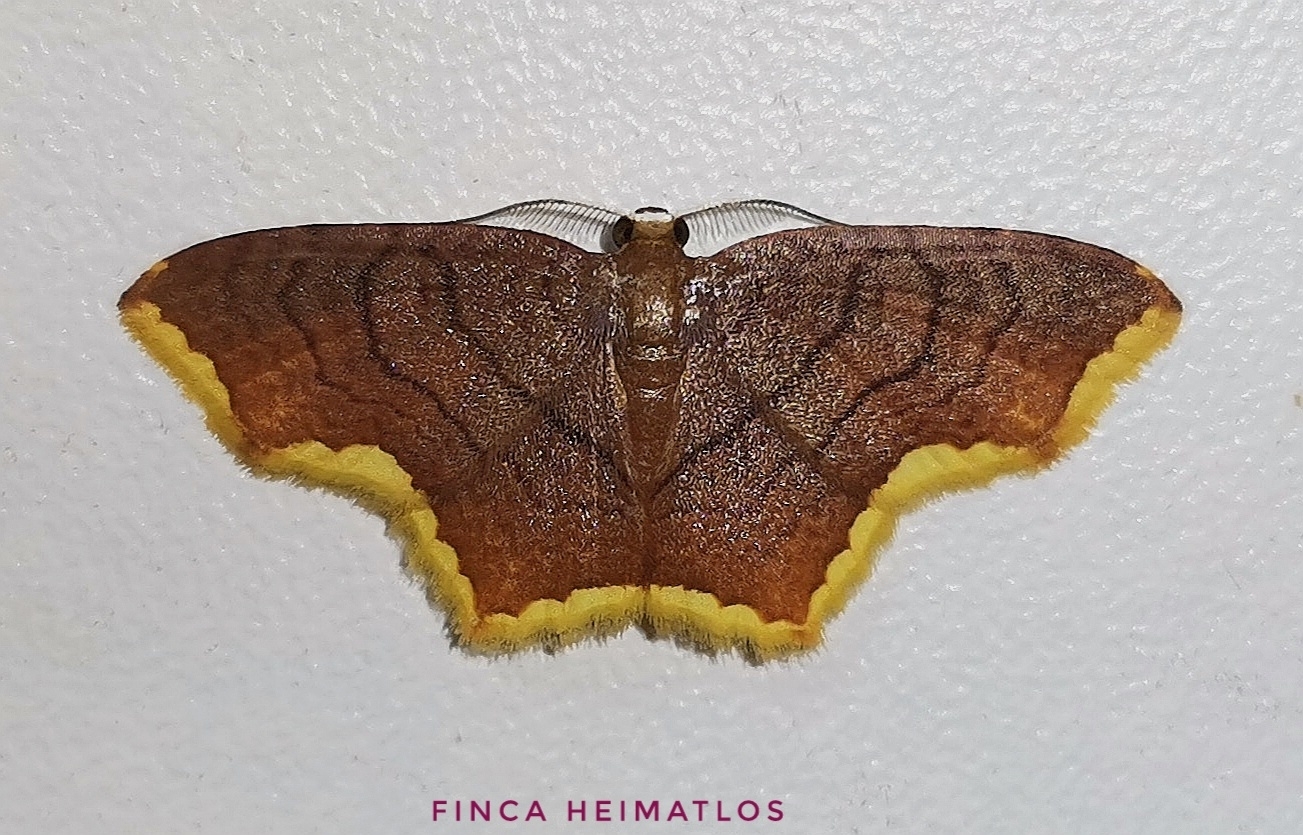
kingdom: Animalia
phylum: Arthropoda
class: Insecta
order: Lepidoptera
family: Geometridae
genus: Eois
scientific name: Eois thetisaria
